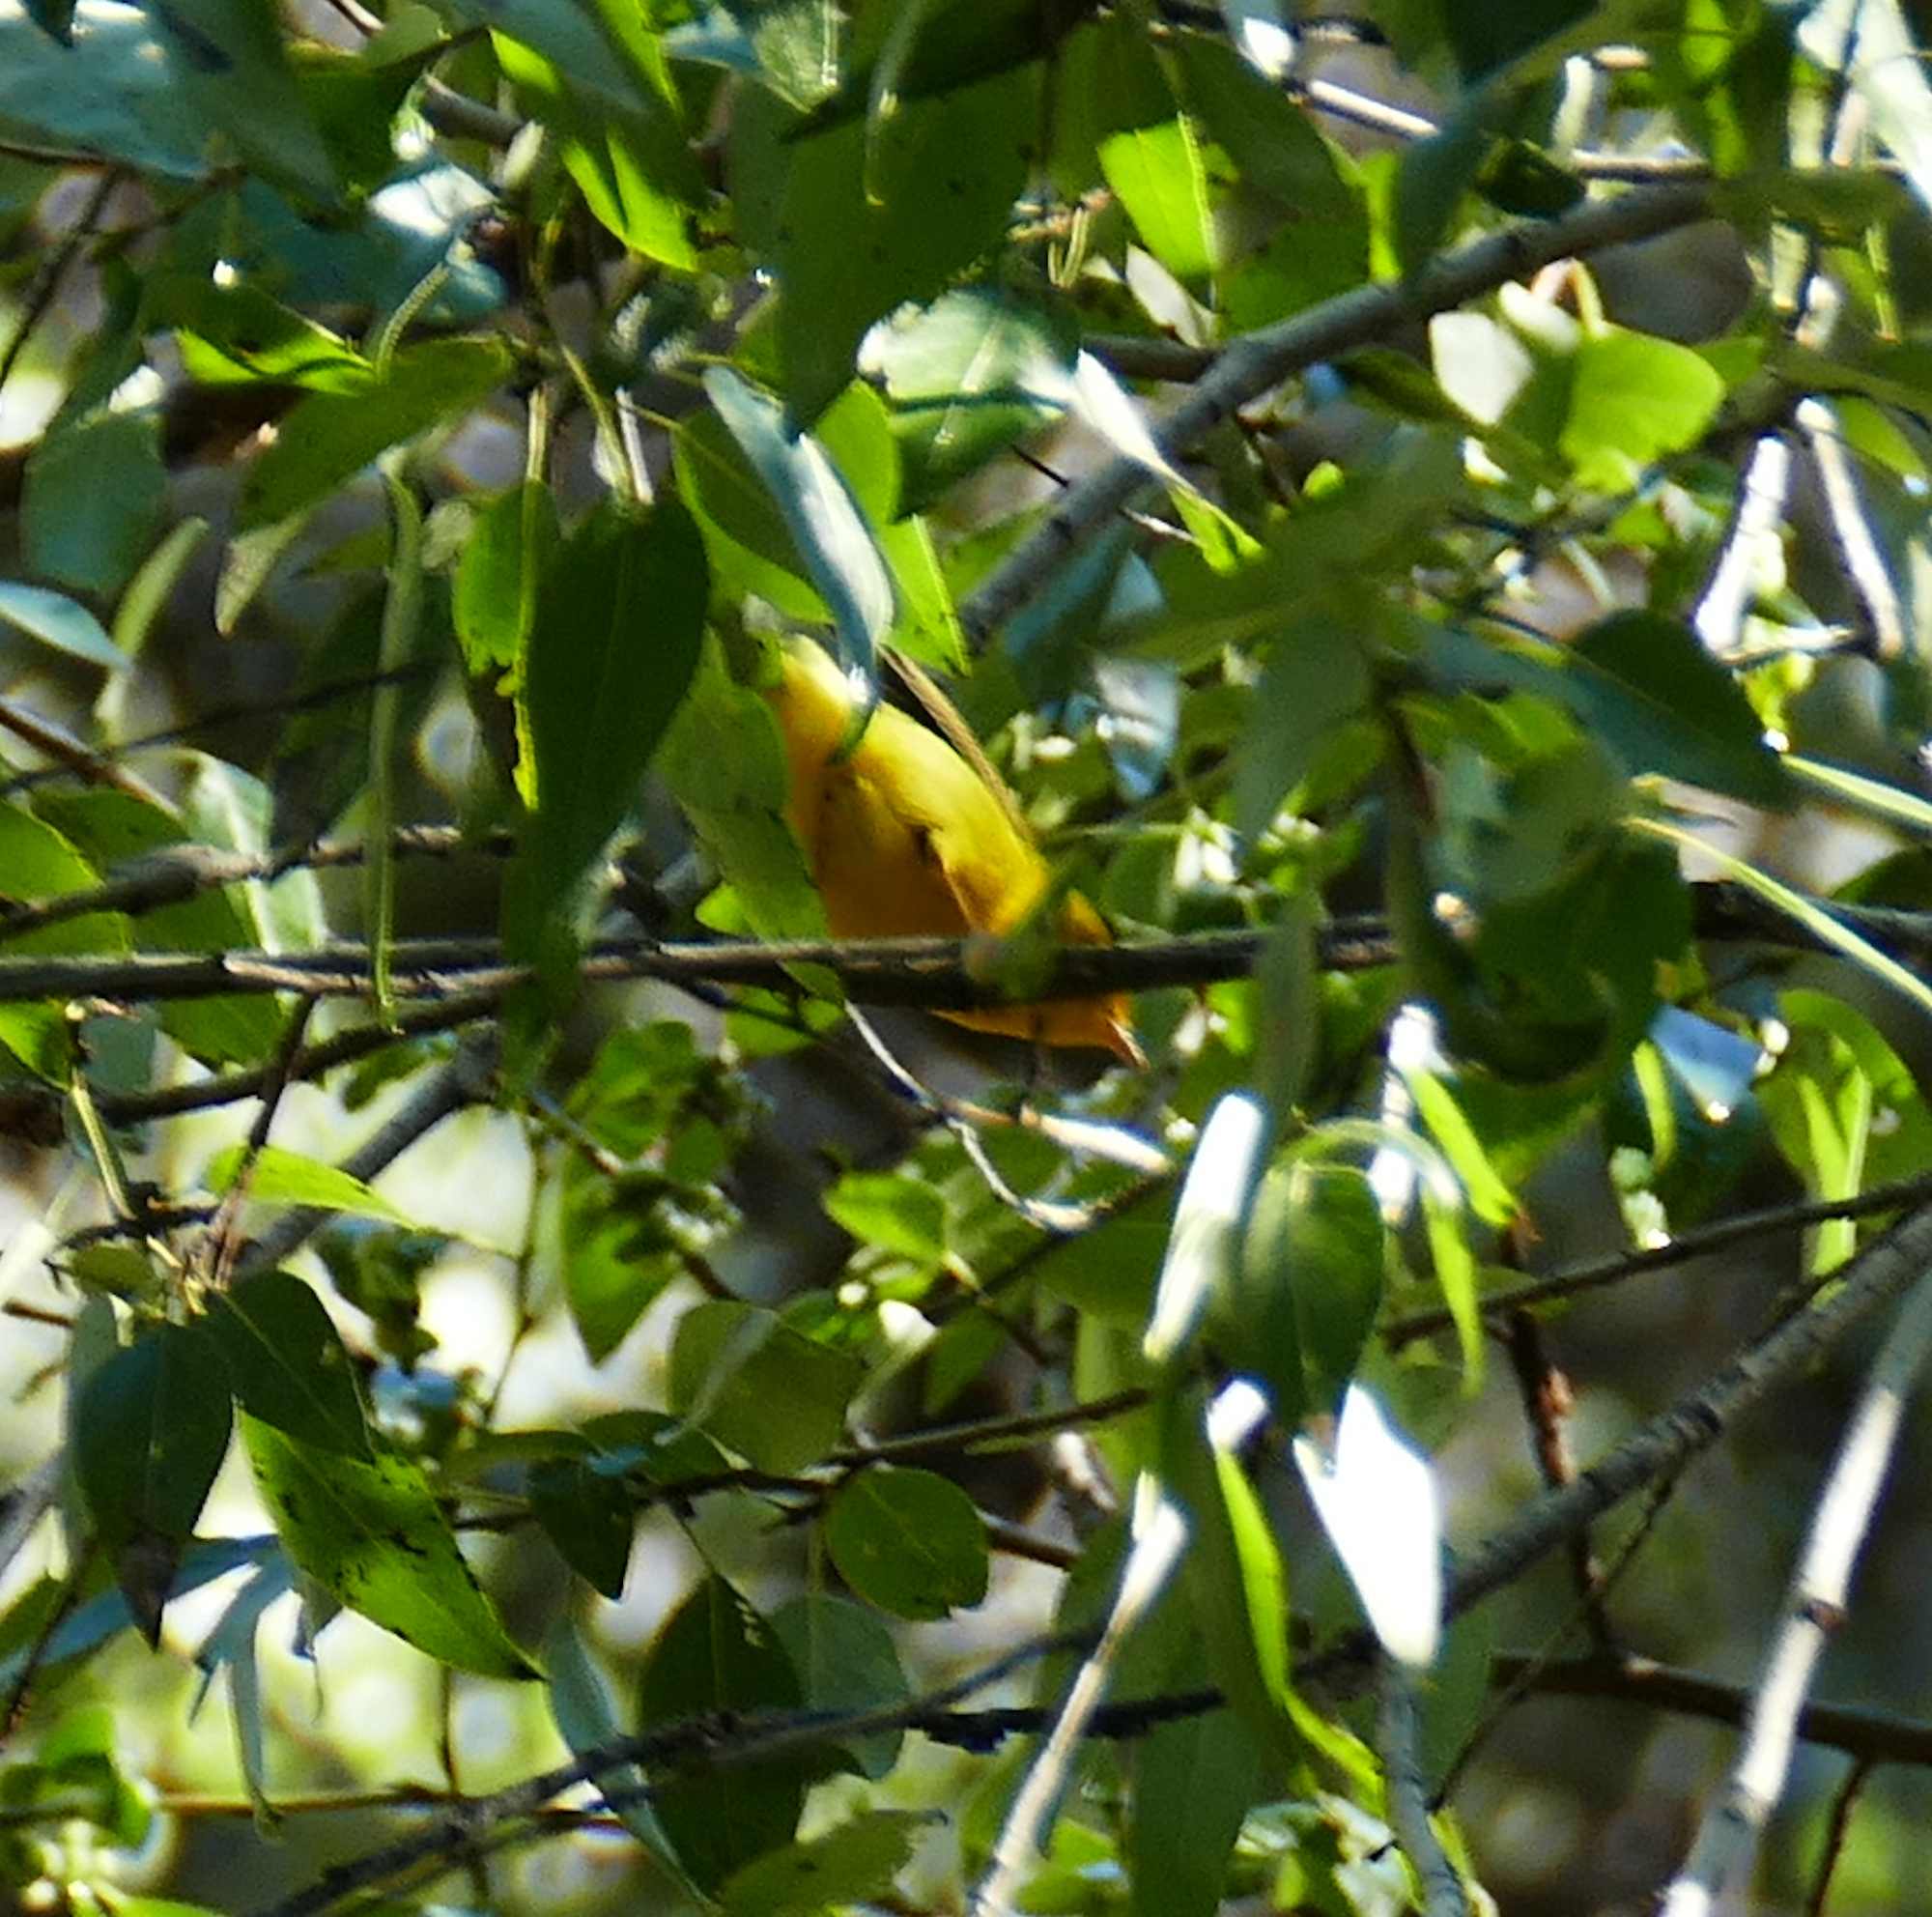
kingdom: Animalia
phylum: Chordata
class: Aves
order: Passeriformes
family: Parulidae
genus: Cardellina
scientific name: Cardellina pusilla
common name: Wilson's warbler
